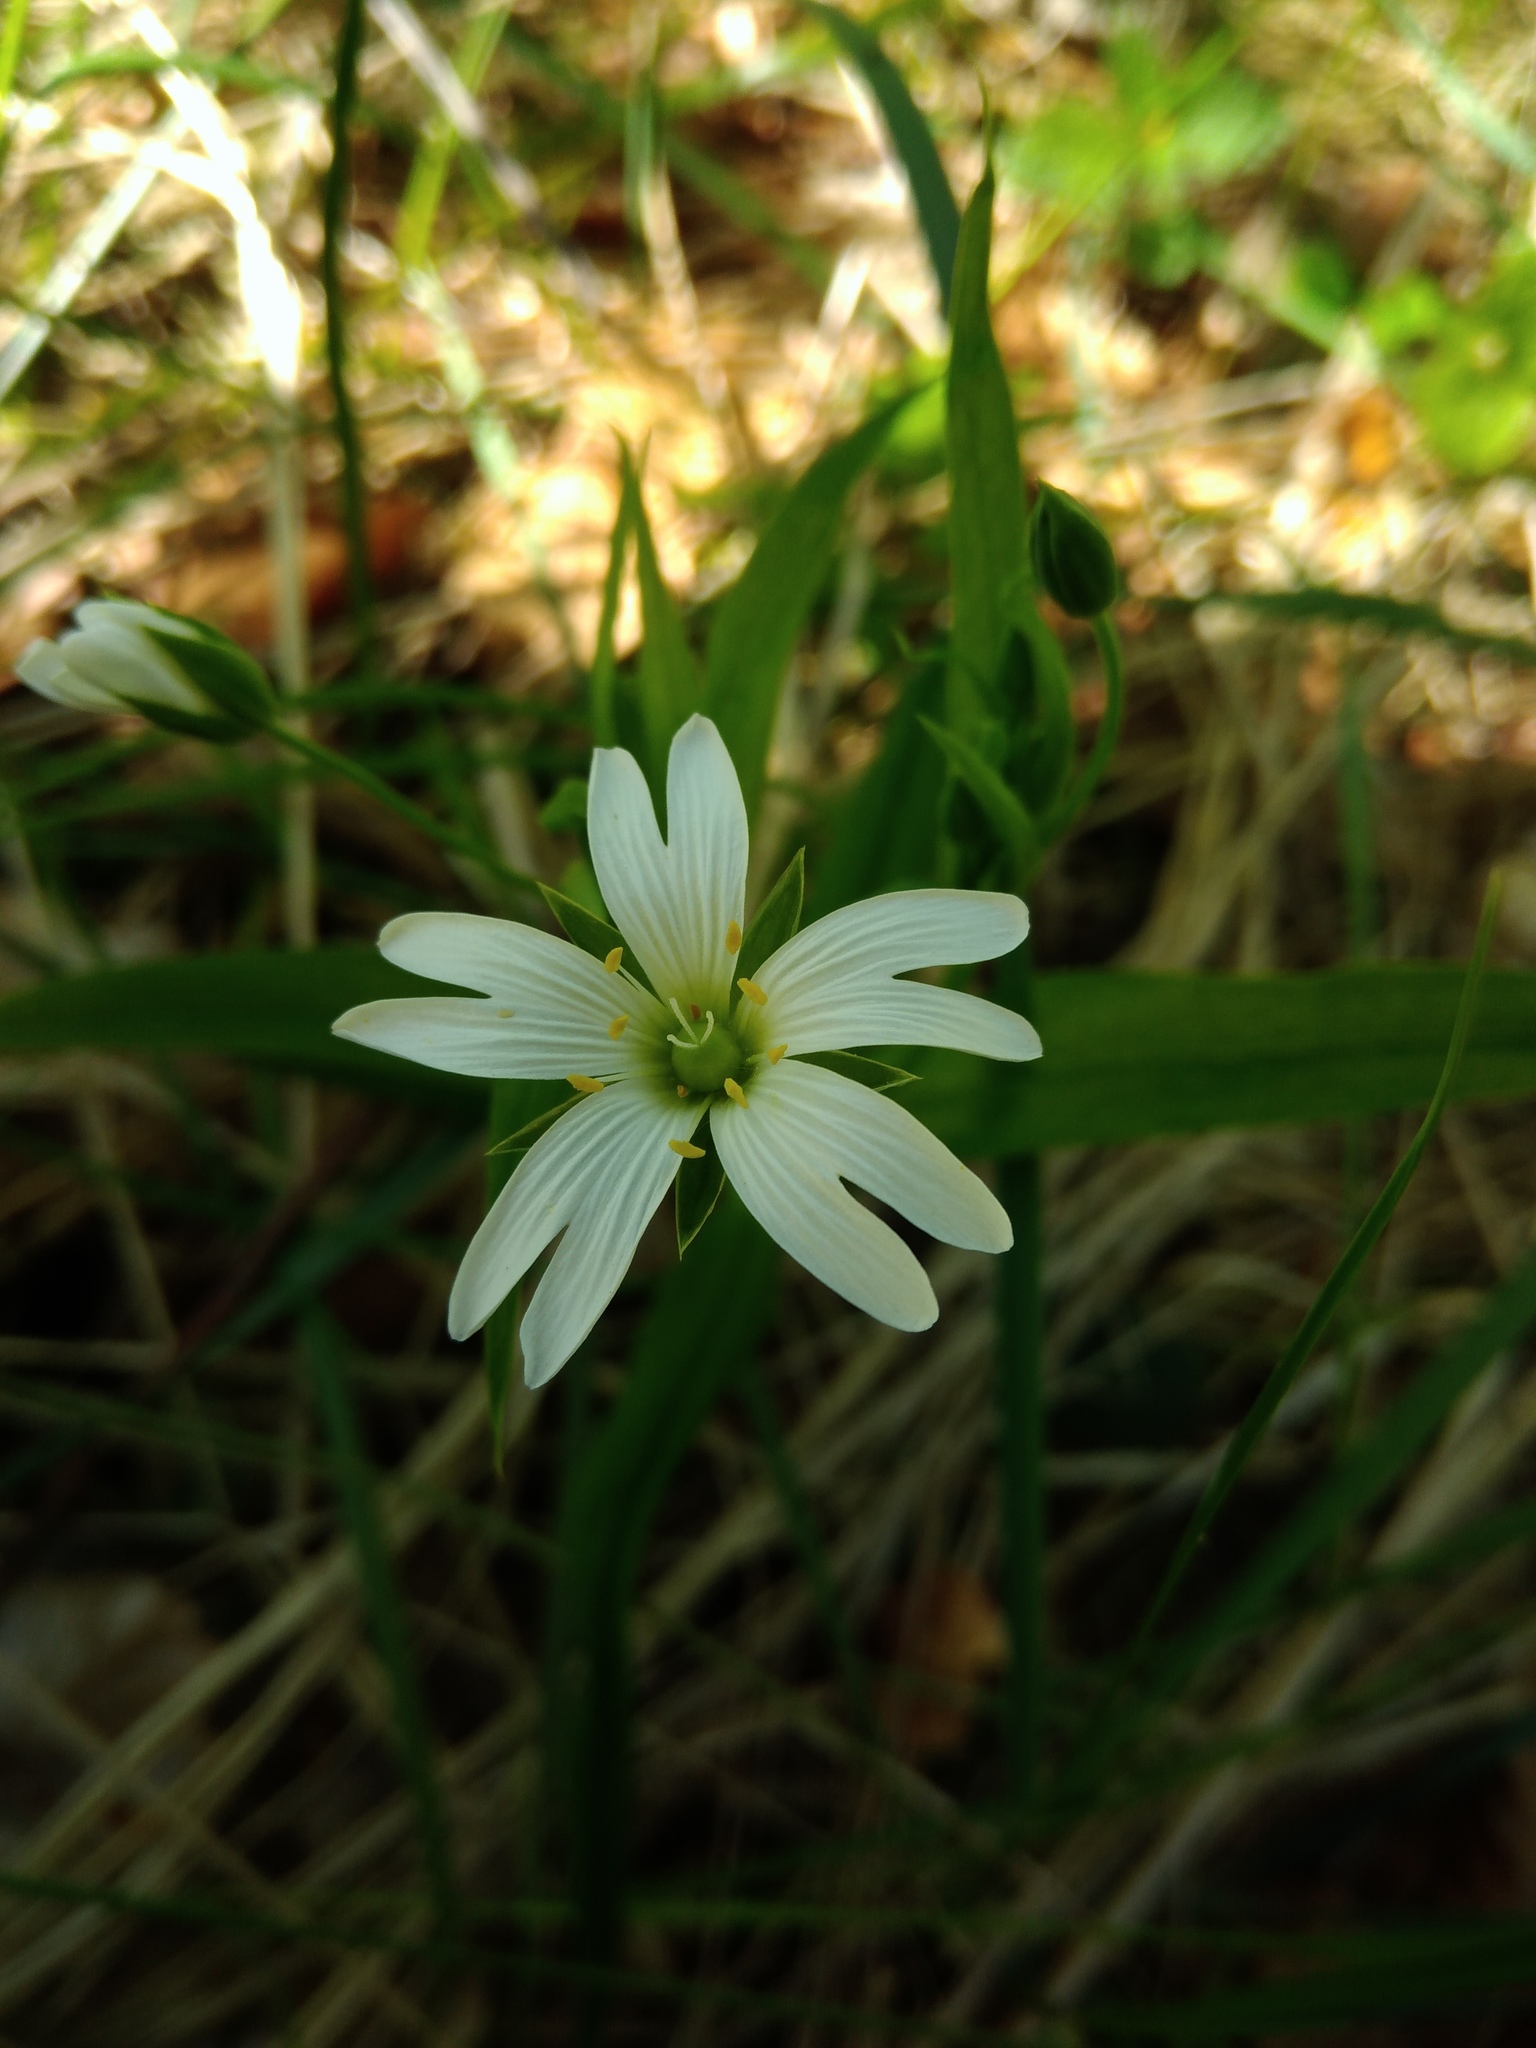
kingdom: Plantae
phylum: Tracheophyta
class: Magnoliopsida
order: Caryophyllales
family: Caryophyllaceae
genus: Rabelera
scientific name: Rabelera holostea
